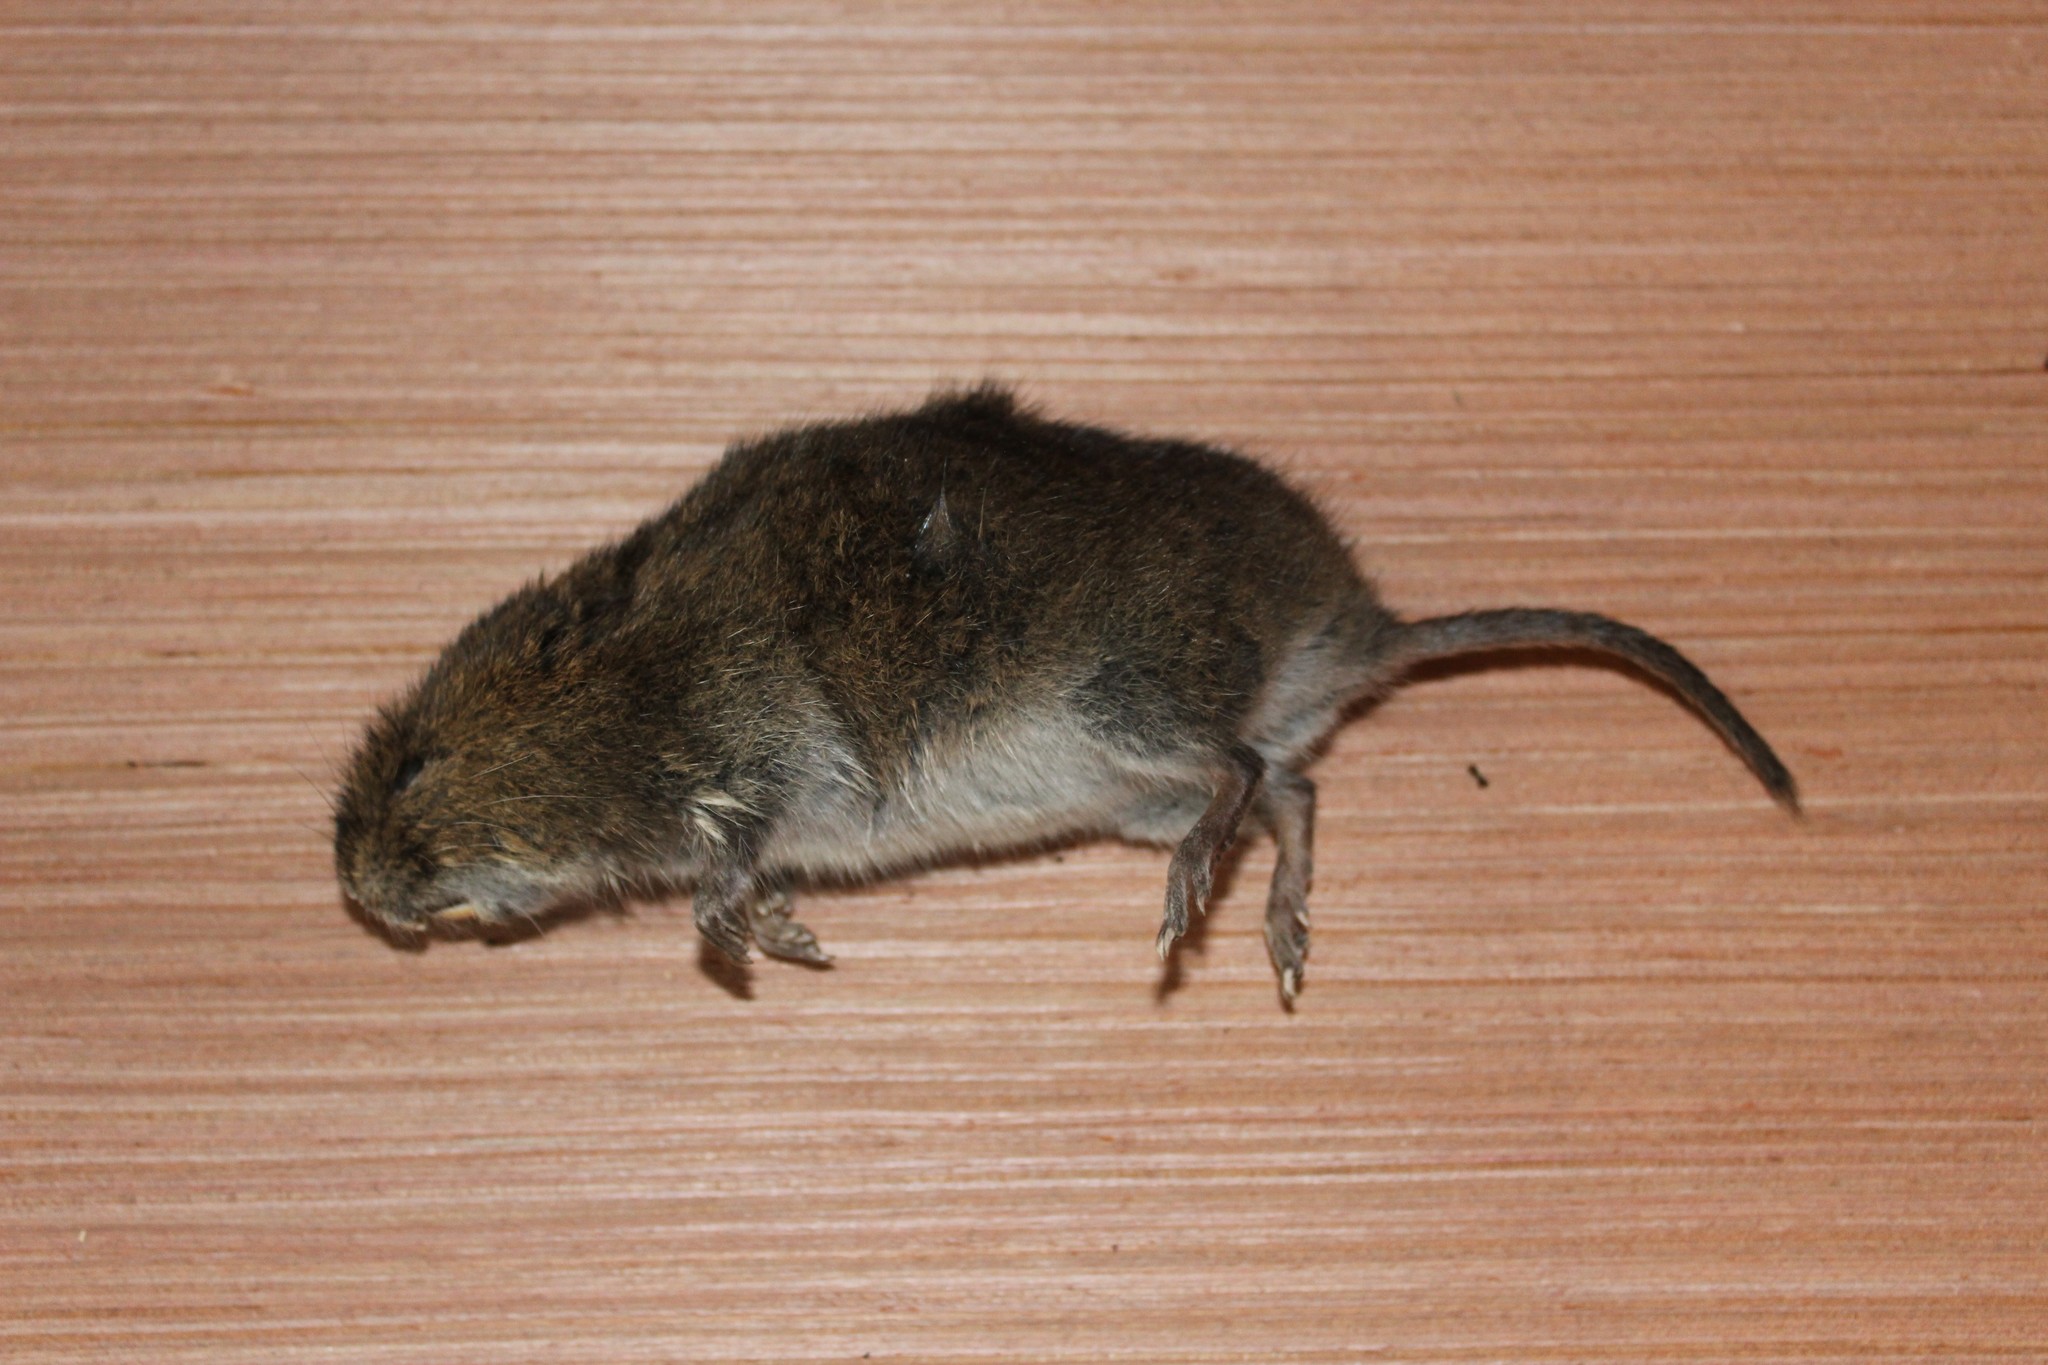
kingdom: Animalia
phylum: Chordata
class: Mammalia
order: Rodentia
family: Cricetidae
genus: Microtus
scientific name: Microtus townsendii
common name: Townsend's vole
